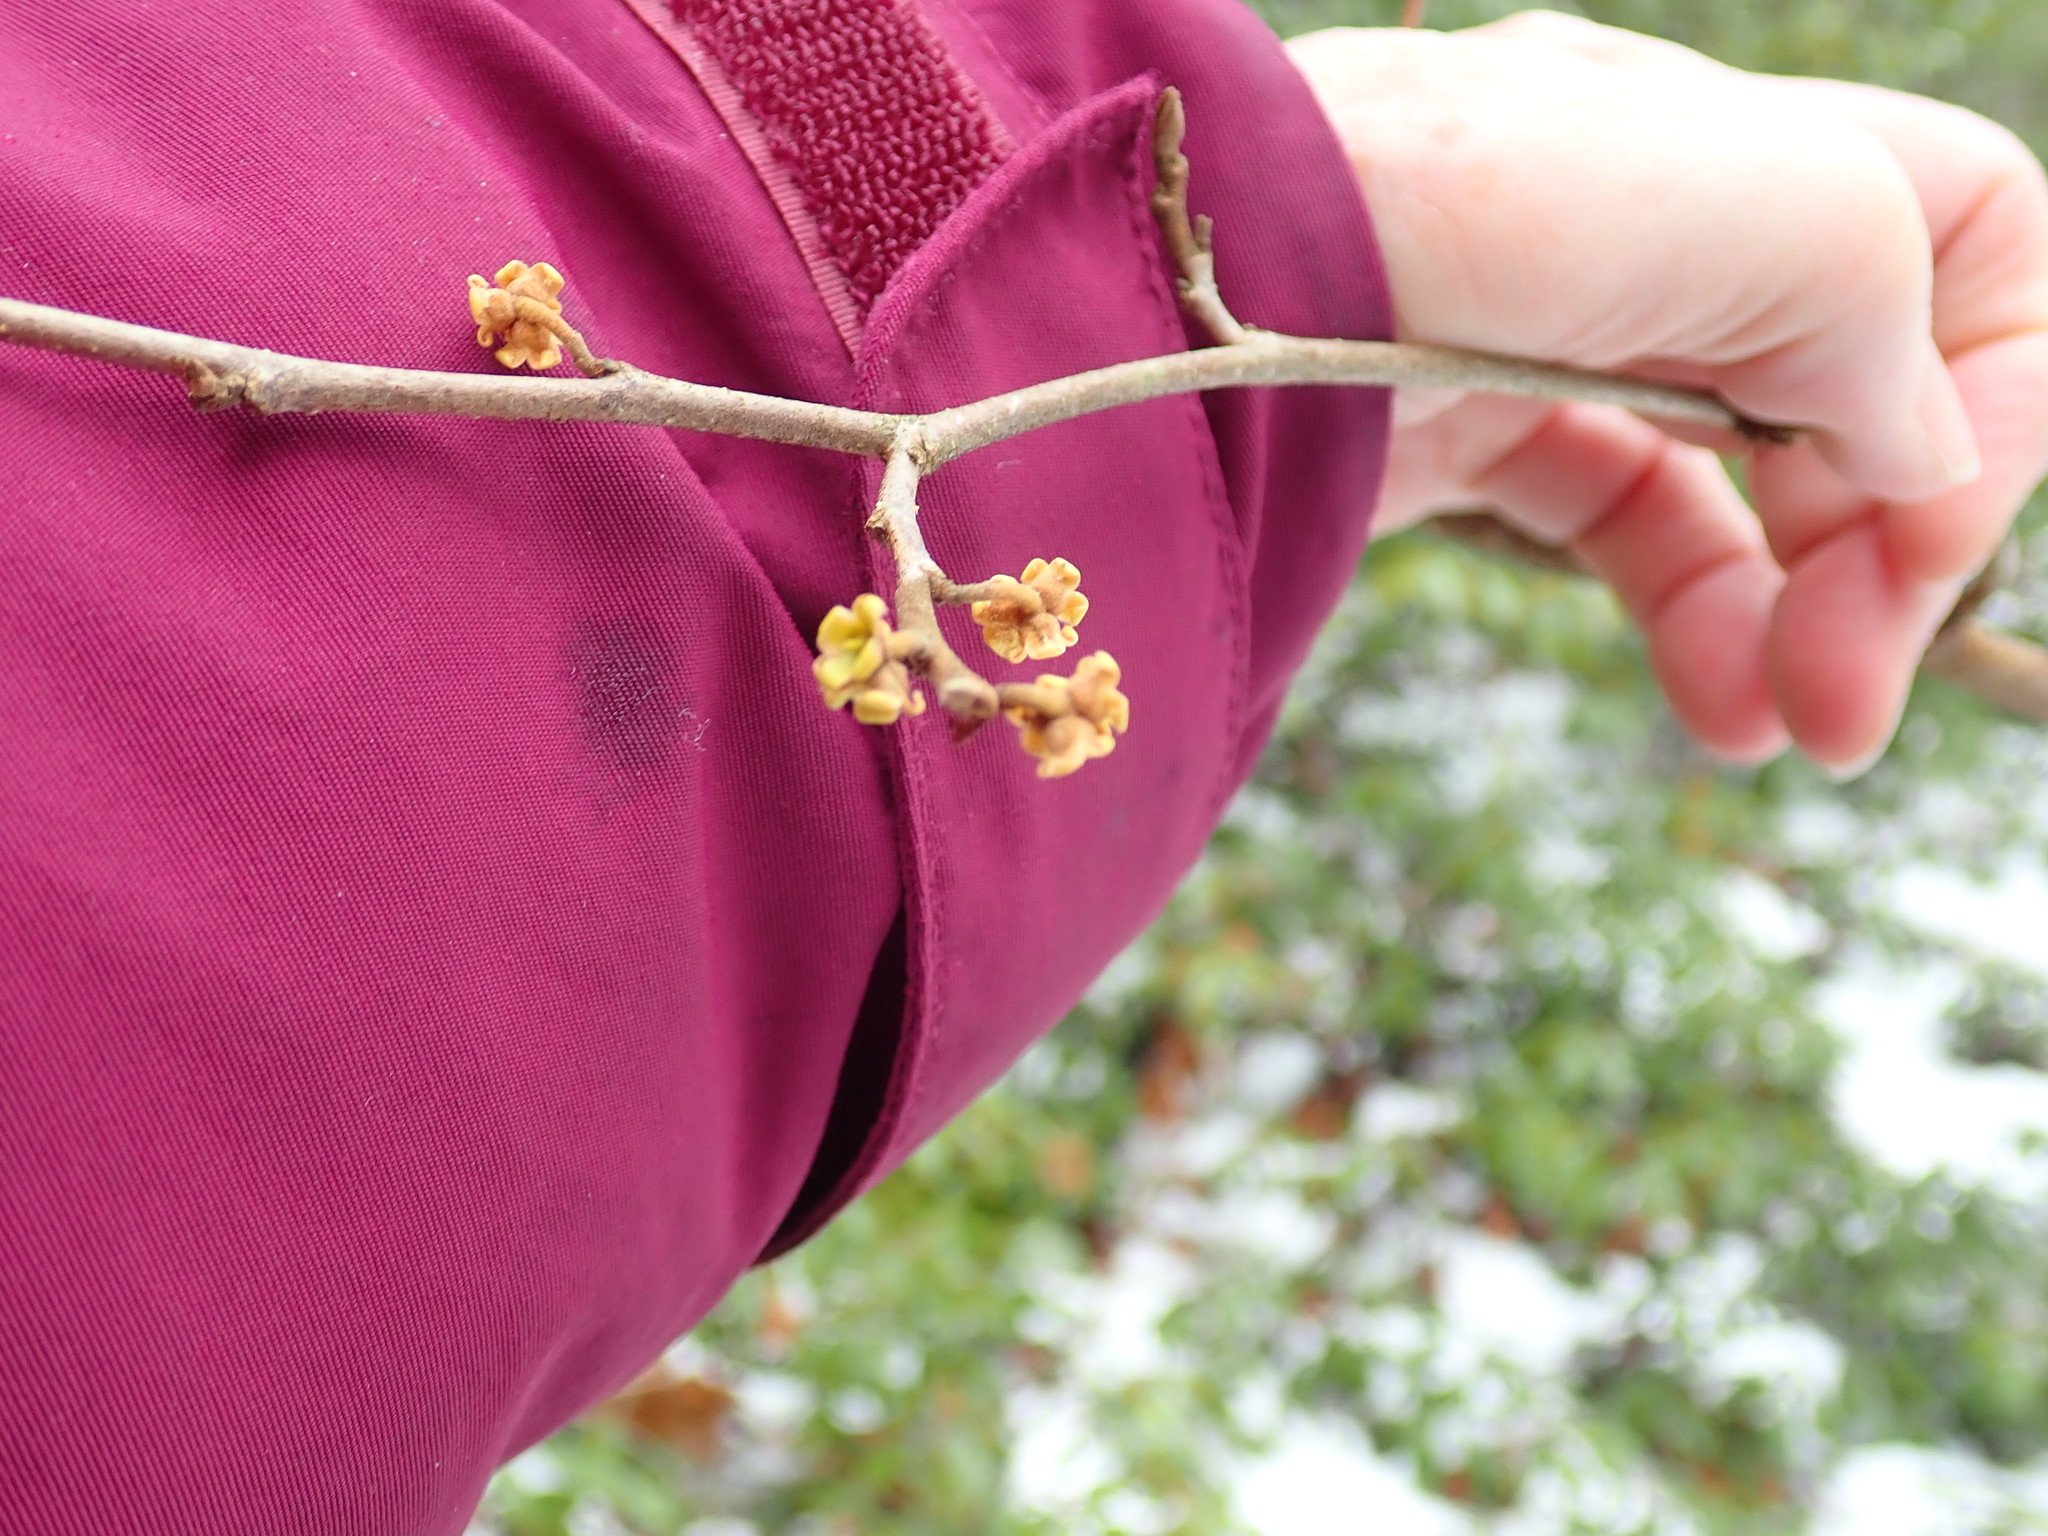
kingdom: Plantae
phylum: Tracheophyta
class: Magnoliopsida
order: Saxifragales
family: Hamamelidaceae
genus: Hamamelis
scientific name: Hamamelis virginiana
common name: Witch-hazel
